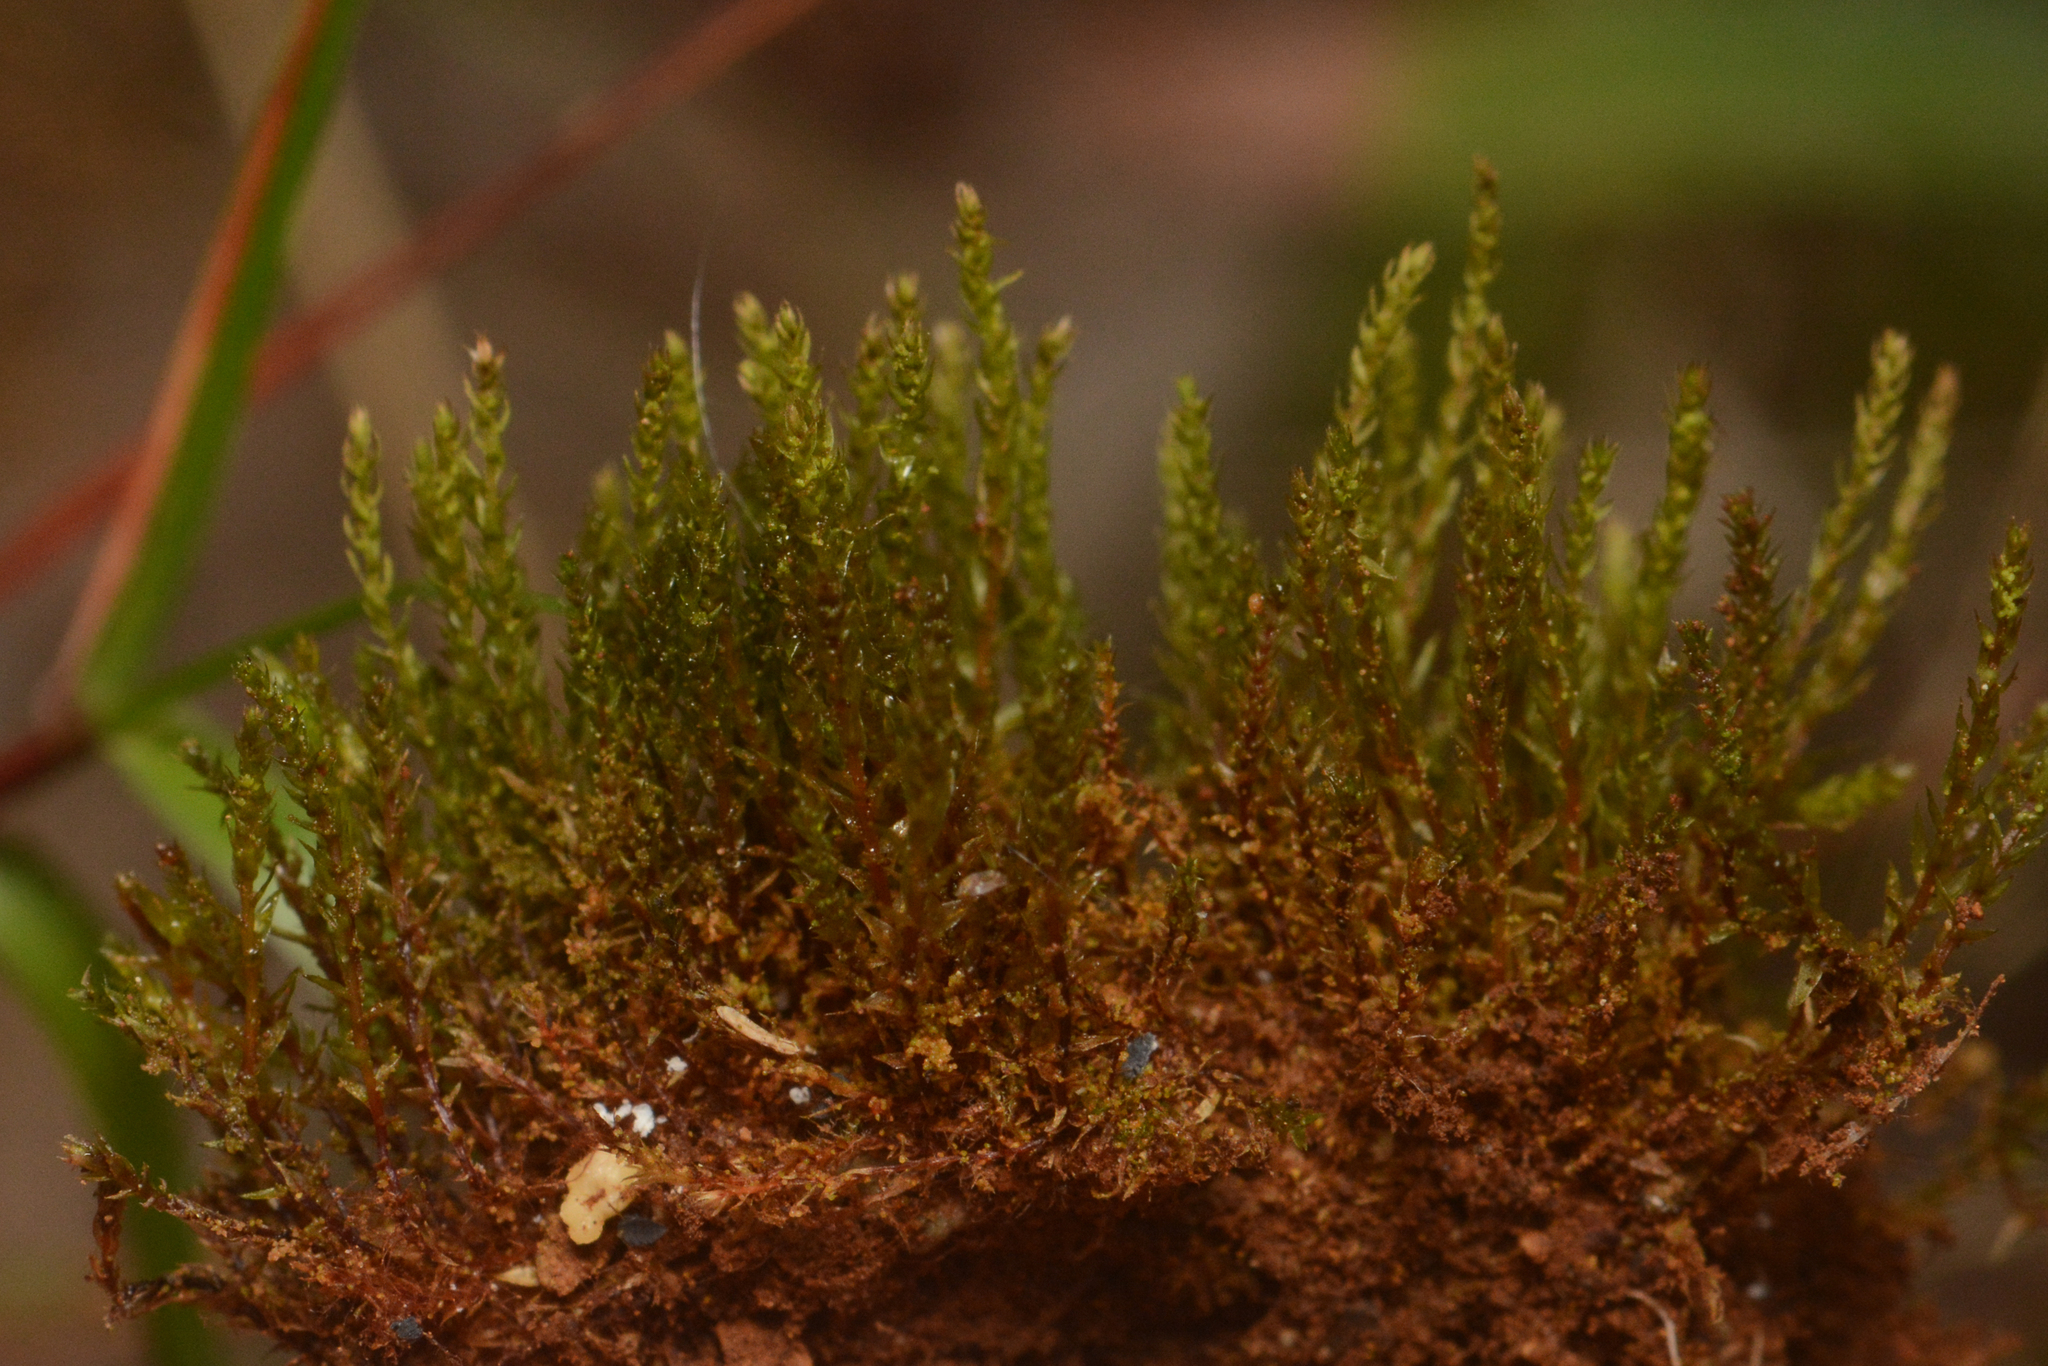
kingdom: Plantae
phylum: Bryophyta
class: Bryopsida
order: Bryales
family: Mniaceae
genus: Pohlia
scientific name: Pohlia bulbifera
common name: Blunt-bud nodding moss
